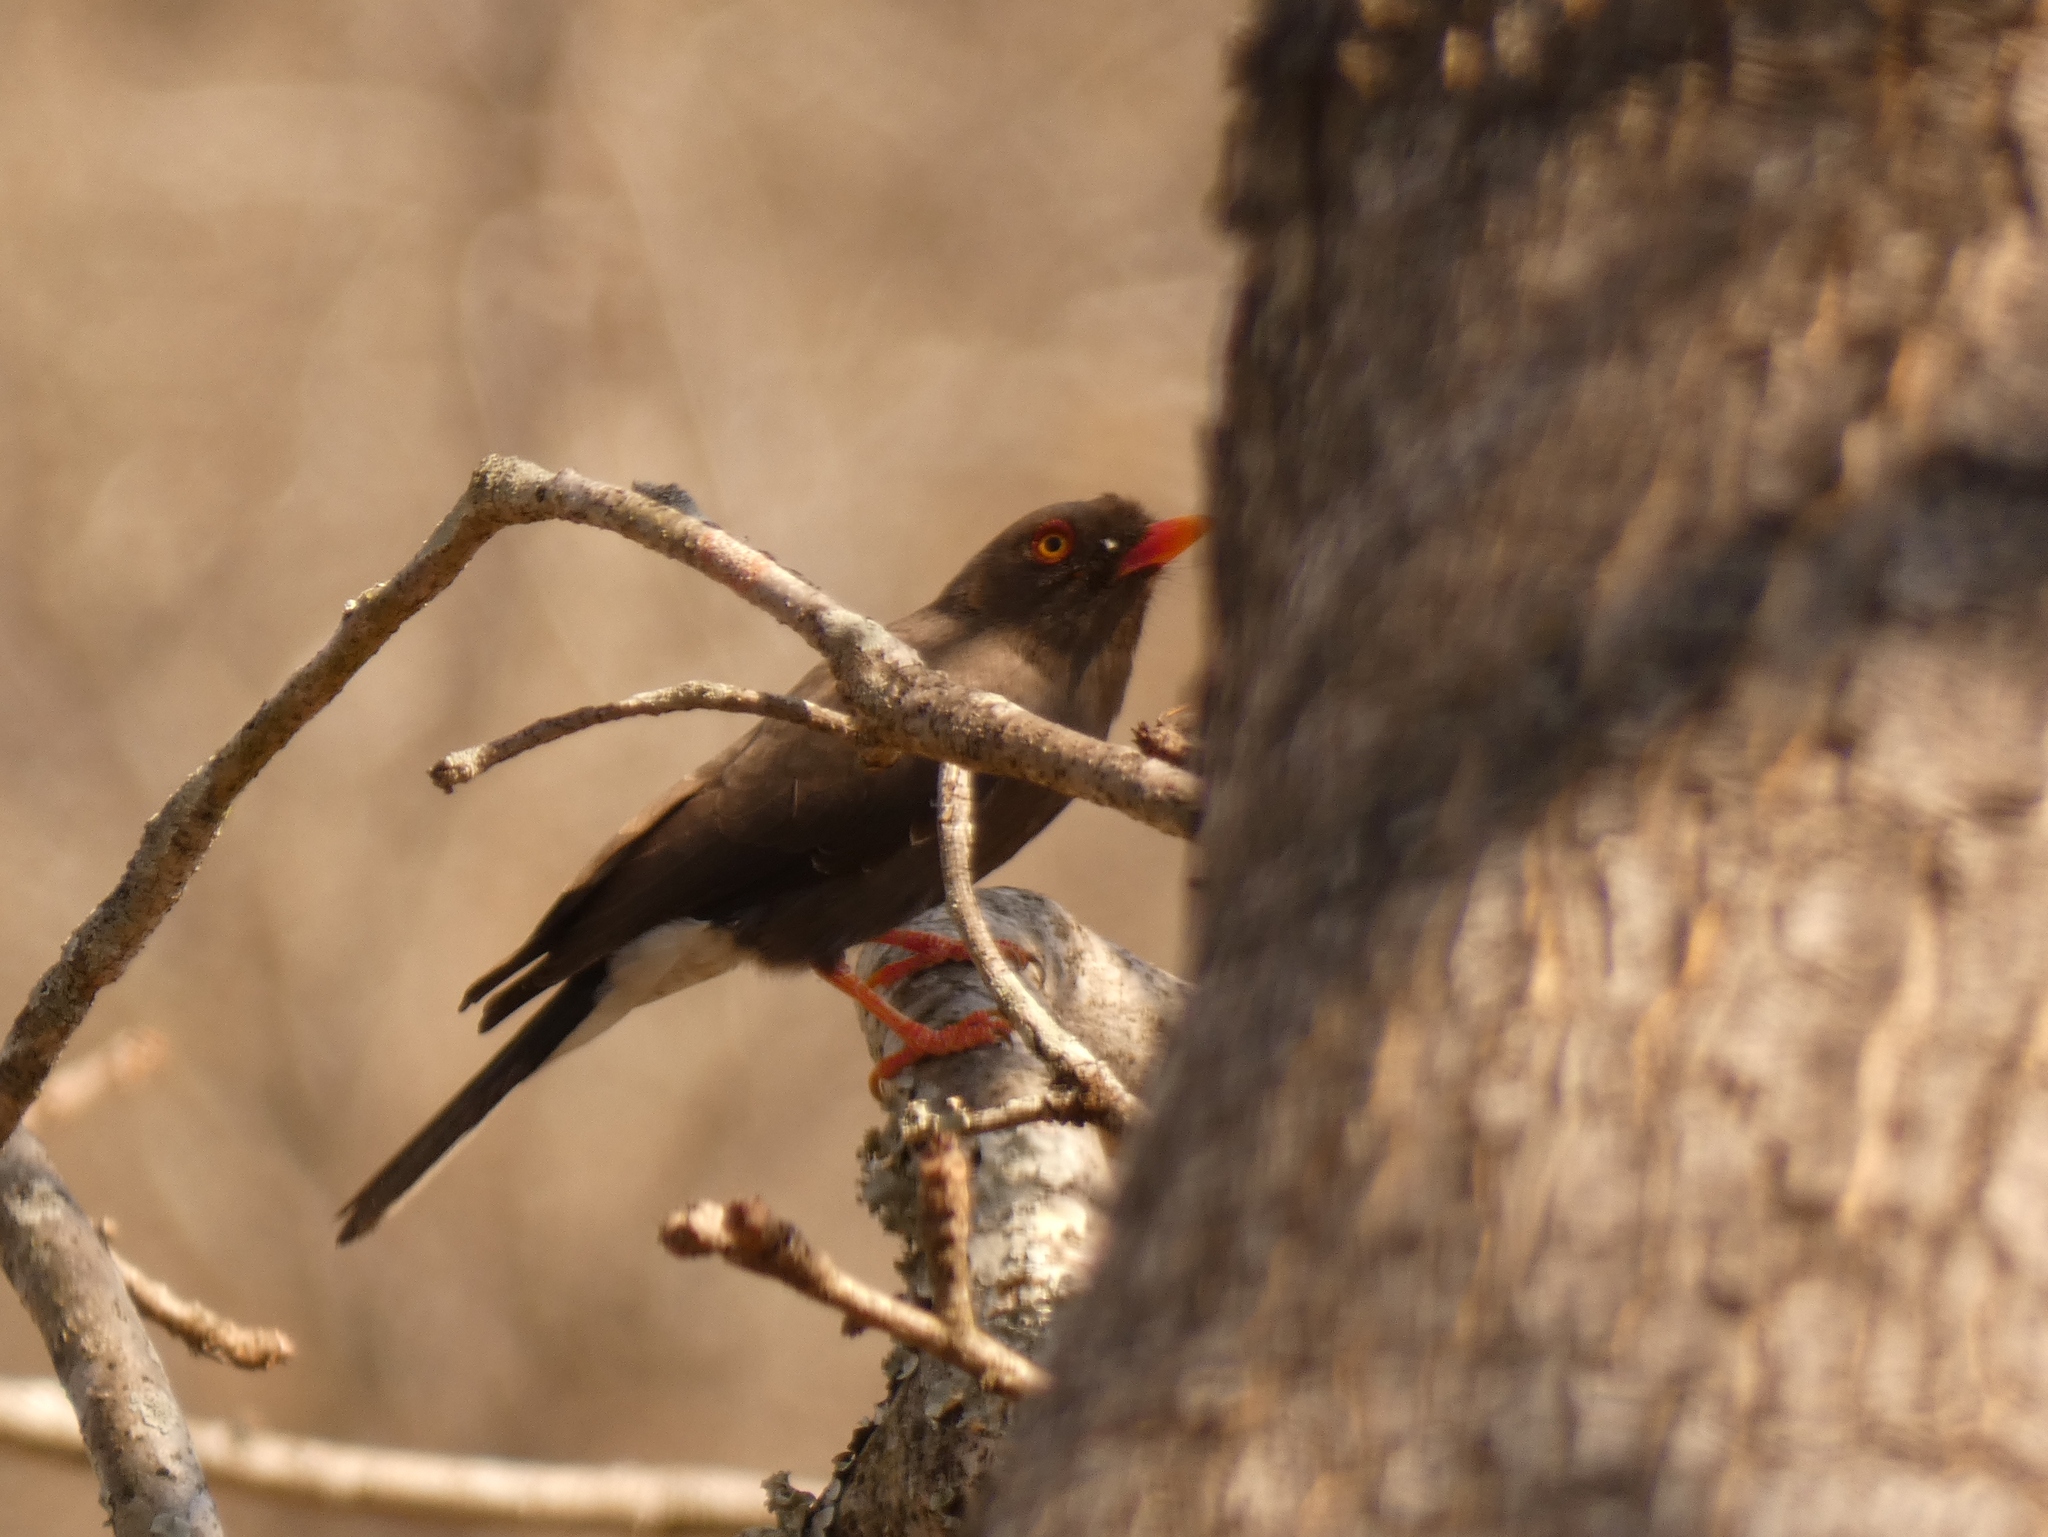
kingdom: Animalia
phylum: Chordata
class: Aves
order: Passeriformes
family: Prionopidae
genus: Prionops
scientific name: Prionops retzii
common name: Retz's helmetshrike
